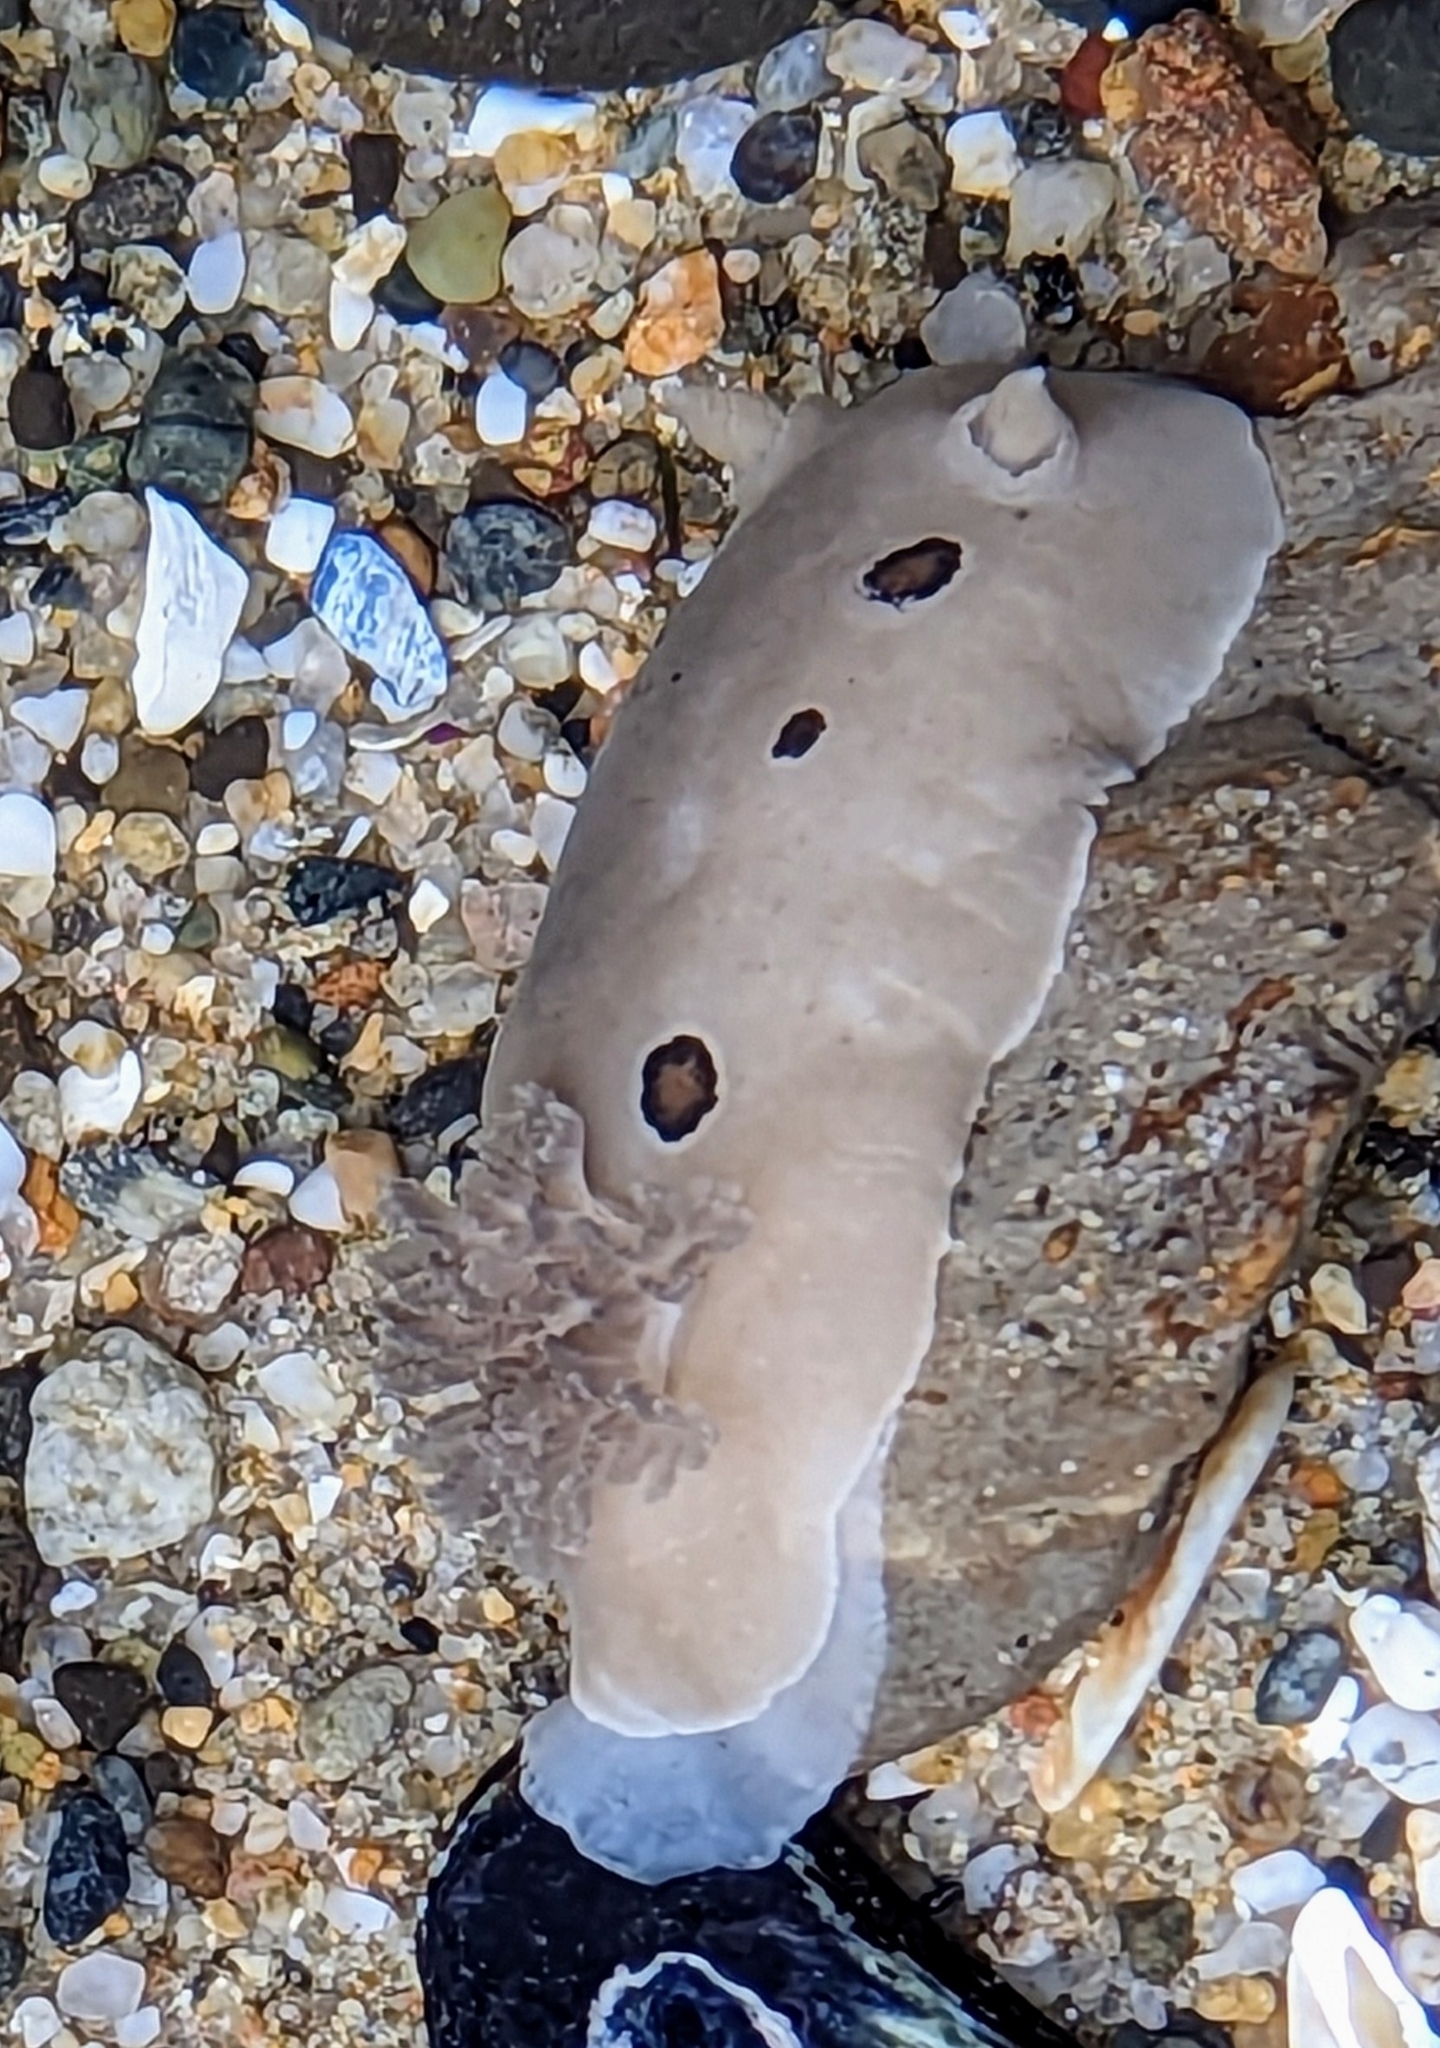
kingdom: Animalia
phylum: Mollusca
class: Gastropoda
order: Nudibranchia
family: Discodorididae
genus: Diaulula
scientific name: Diaulula sandiegensis
